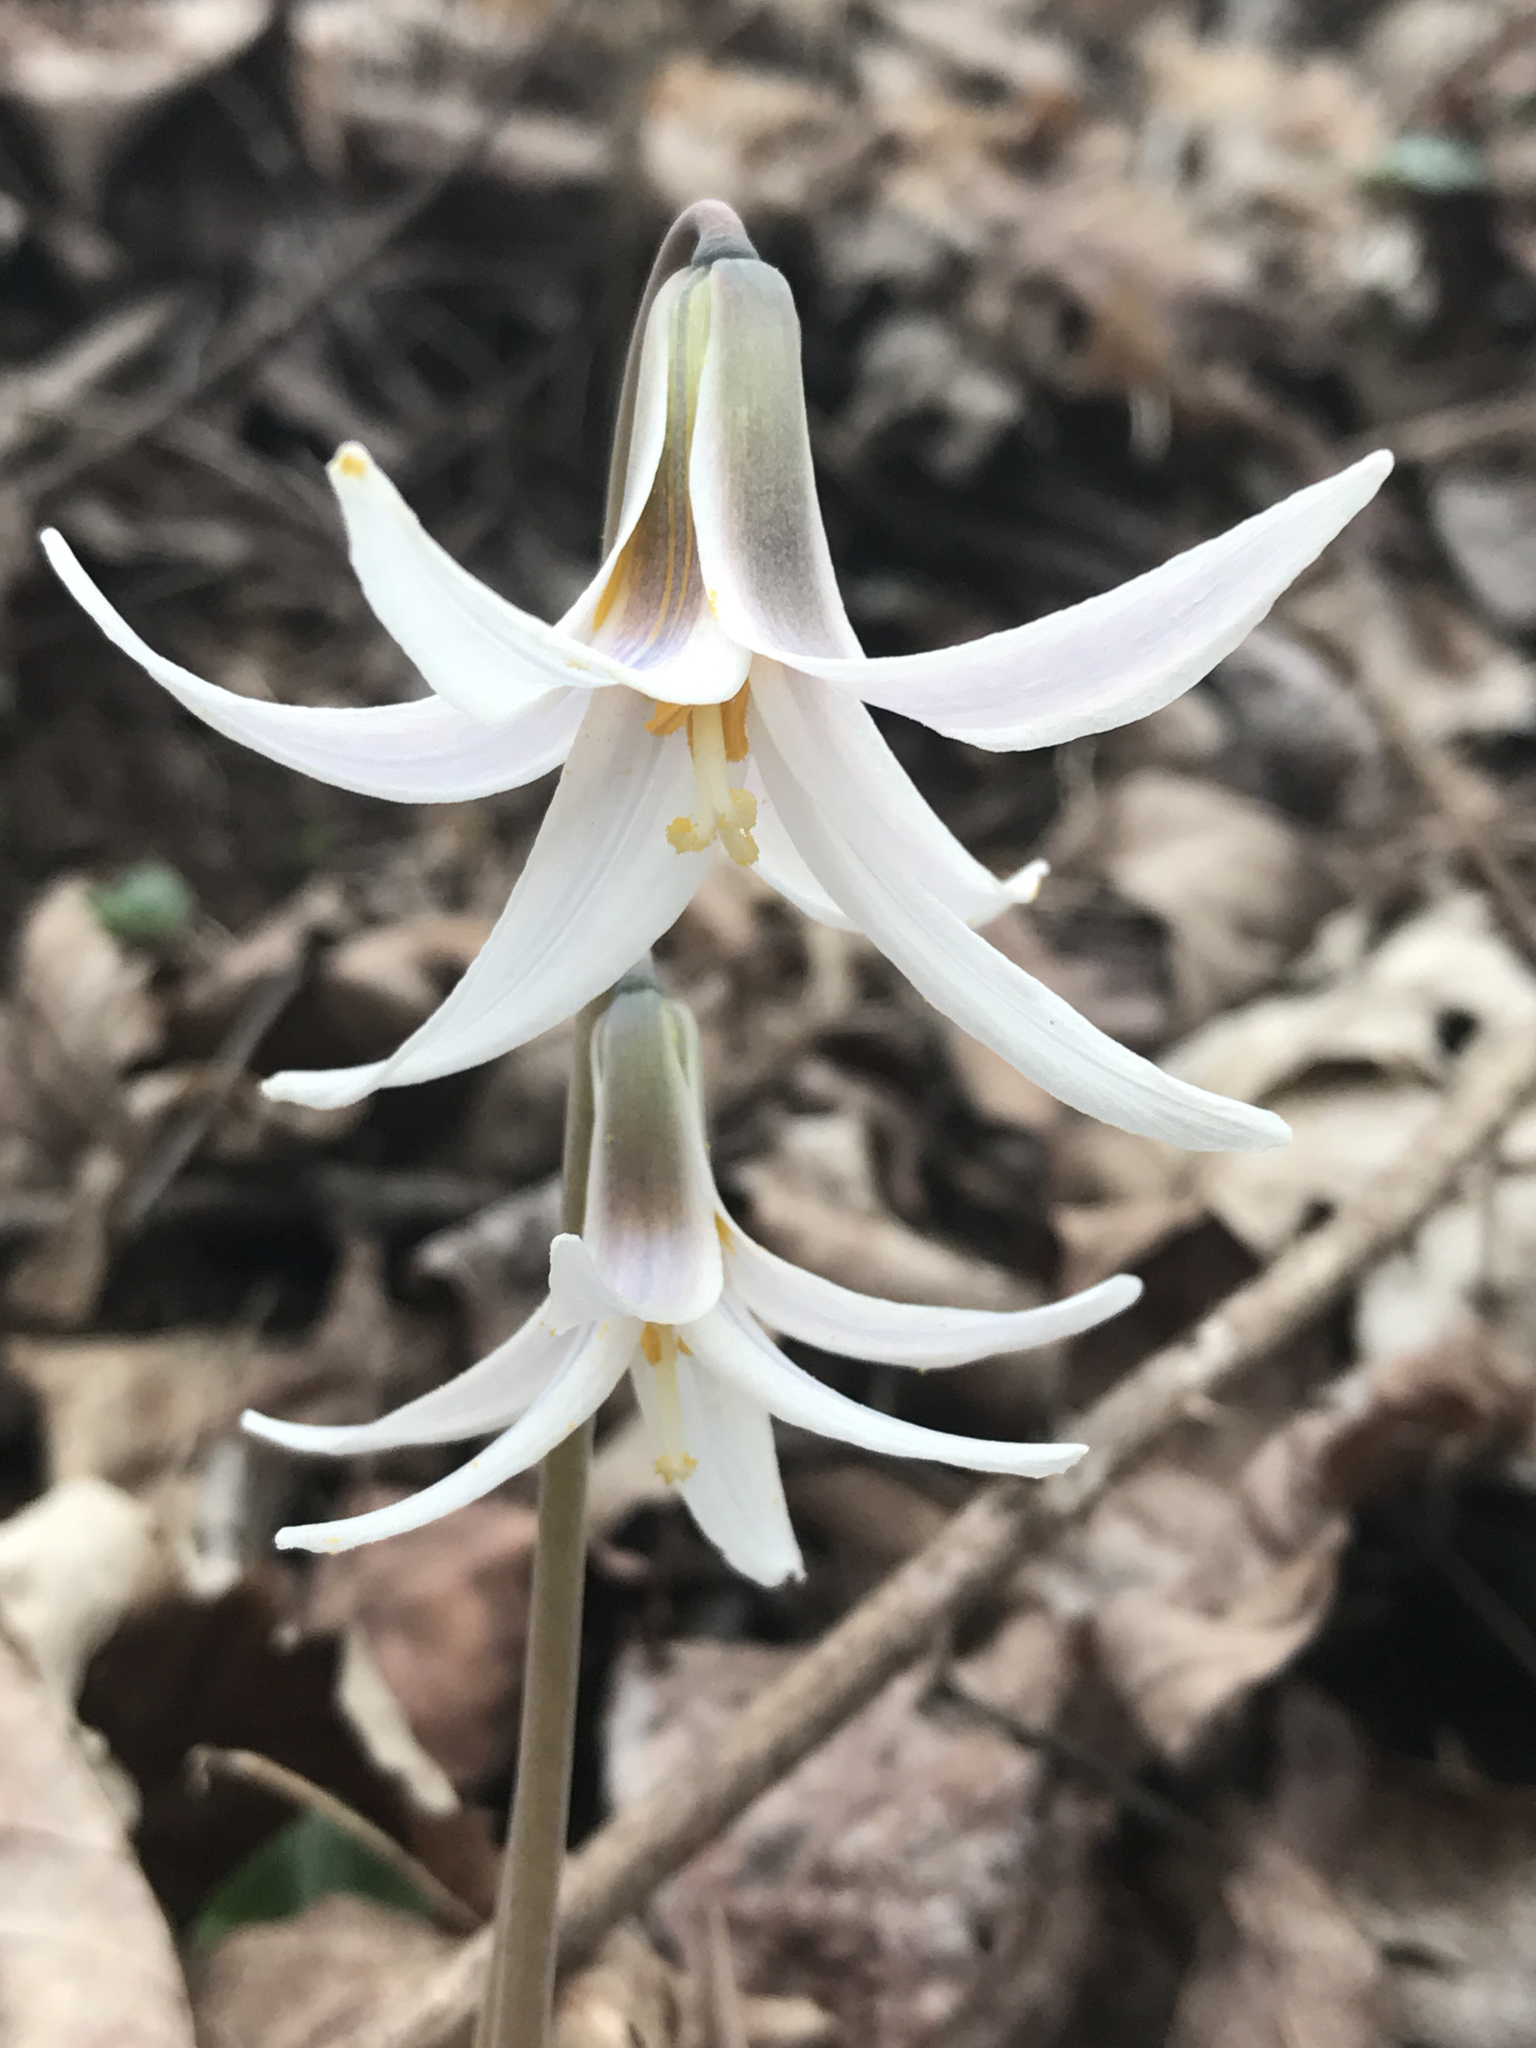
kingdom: Plantae
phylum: Tracheophyta
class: Liliopsida
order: Liliales
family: Liliaceae
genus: Erythronium
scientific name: Erythronium albidum
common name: White trout-lily
